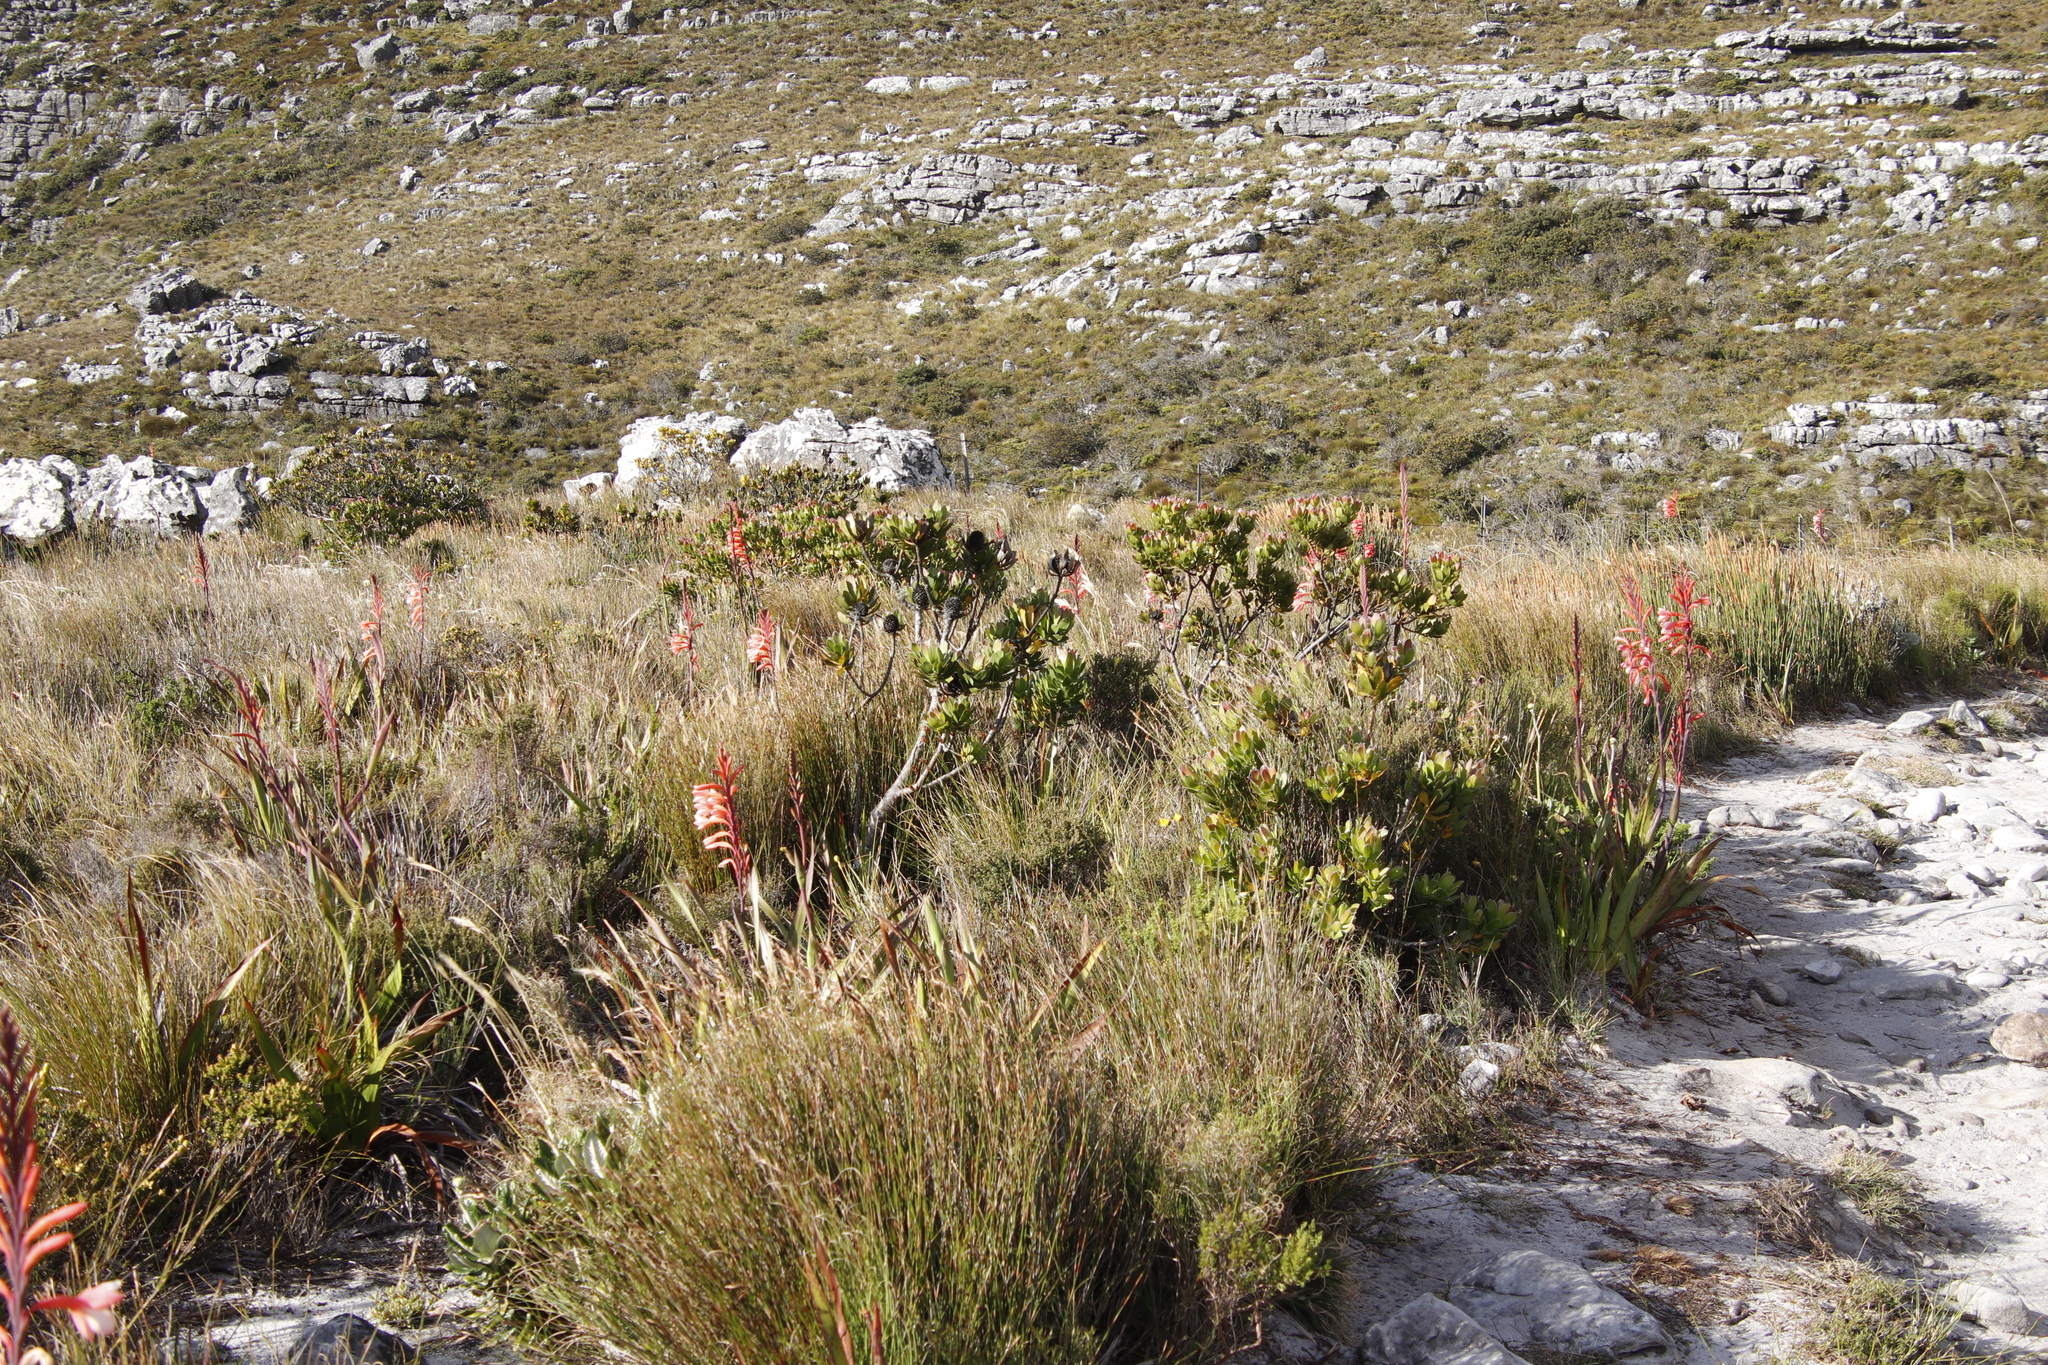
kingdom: Plantae
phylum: Tracheophyta
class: Magnoliopsida
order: Proteales
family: Proteaceae
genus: Protea
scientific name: Protea cynaroides
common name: King protea
